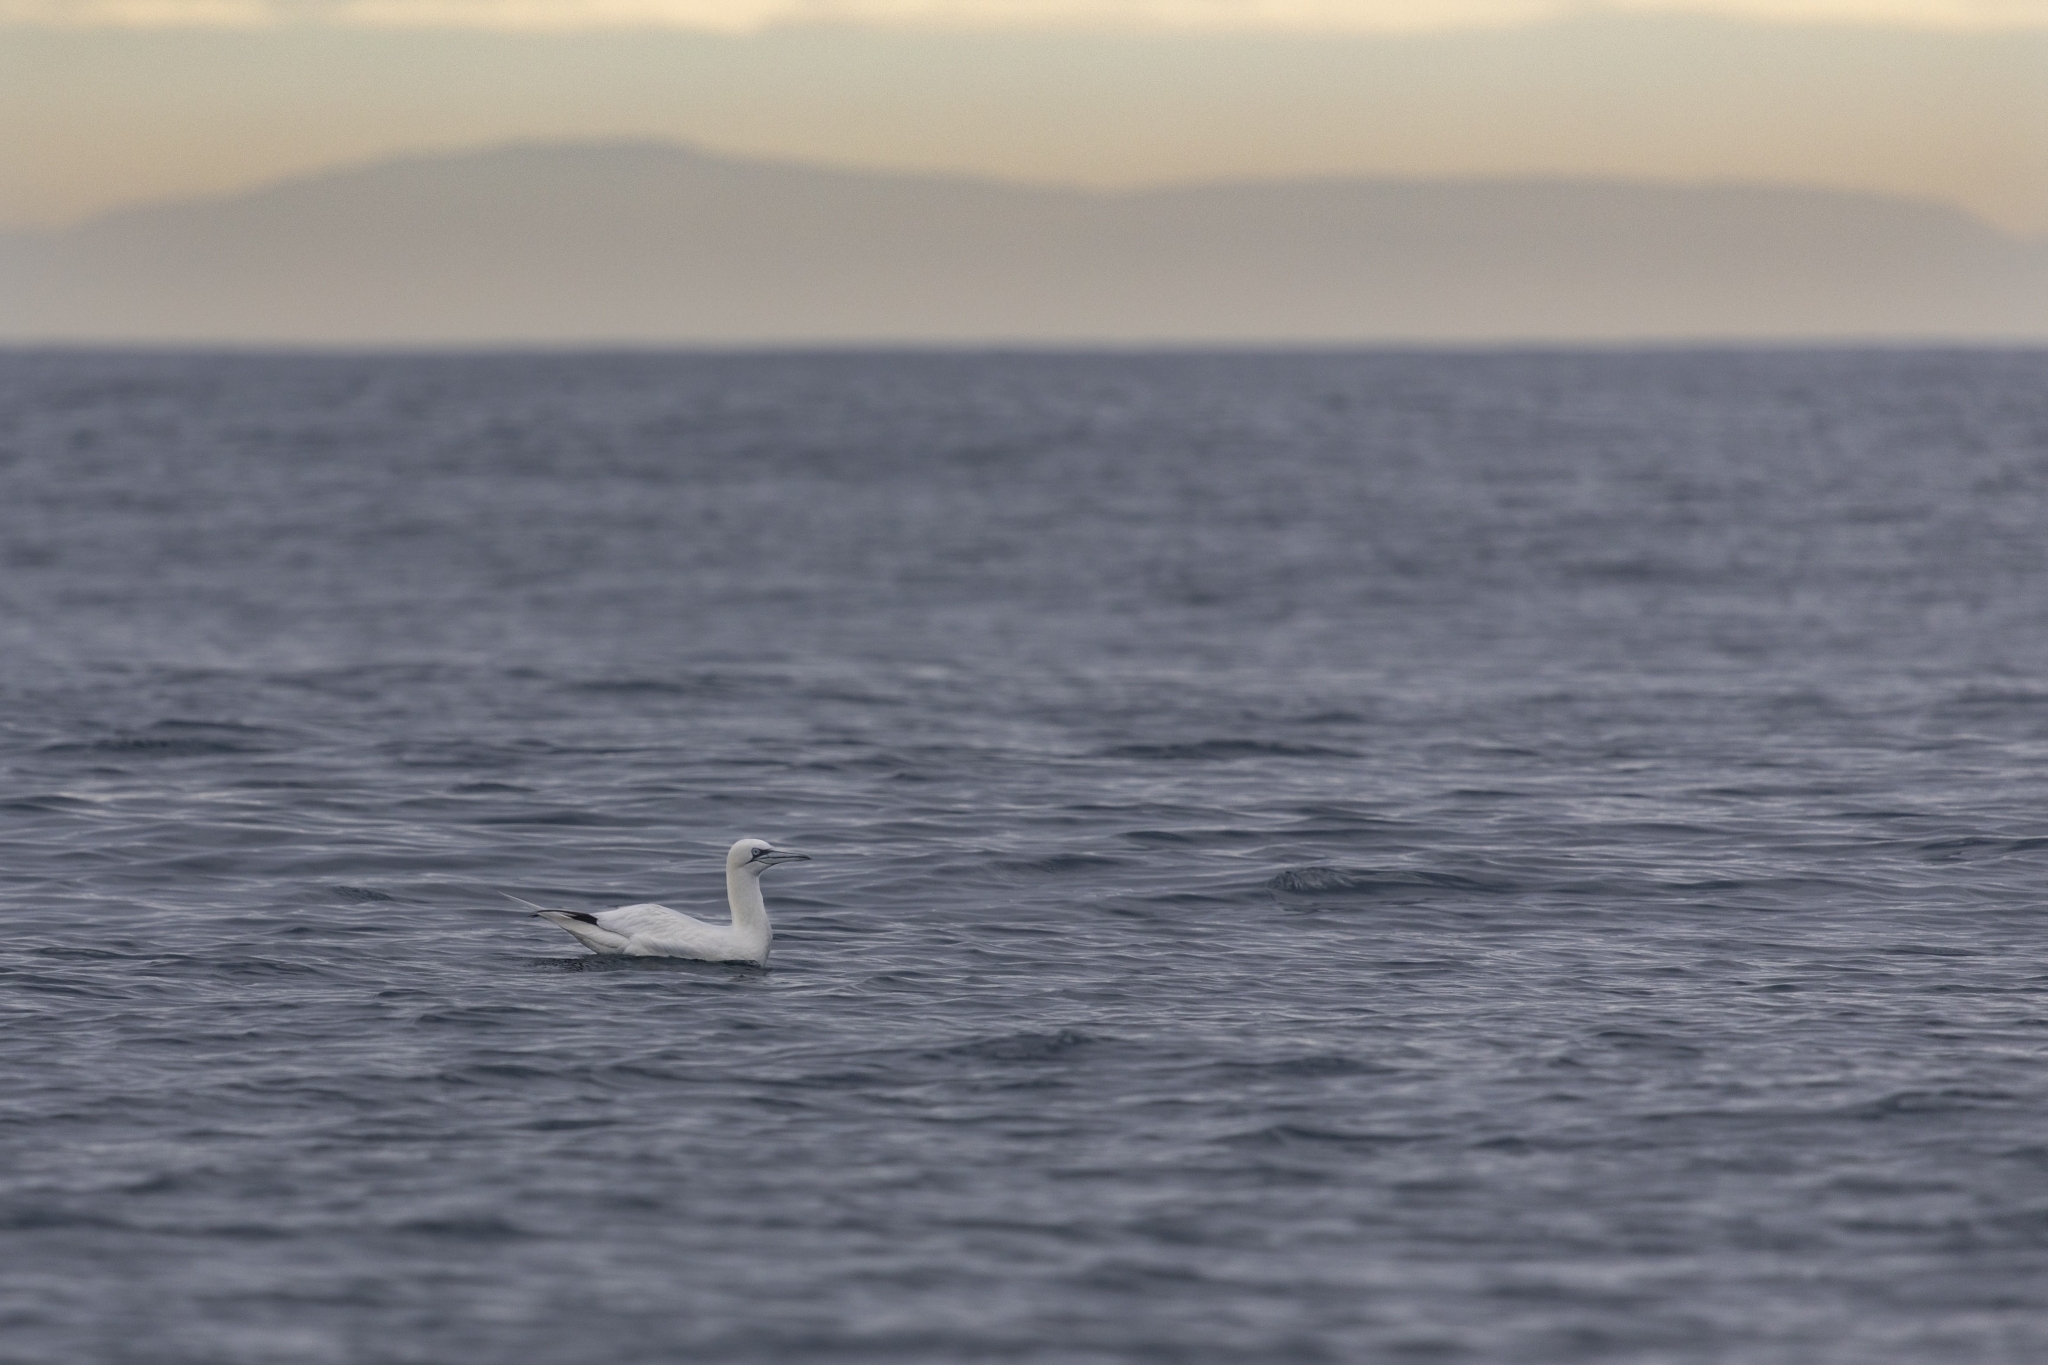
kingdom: Animalia
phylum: Chordata
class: Aves
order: Suliformes
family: Sulidae
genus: Morus
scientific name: Morus bassanus
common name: Northern gannet
